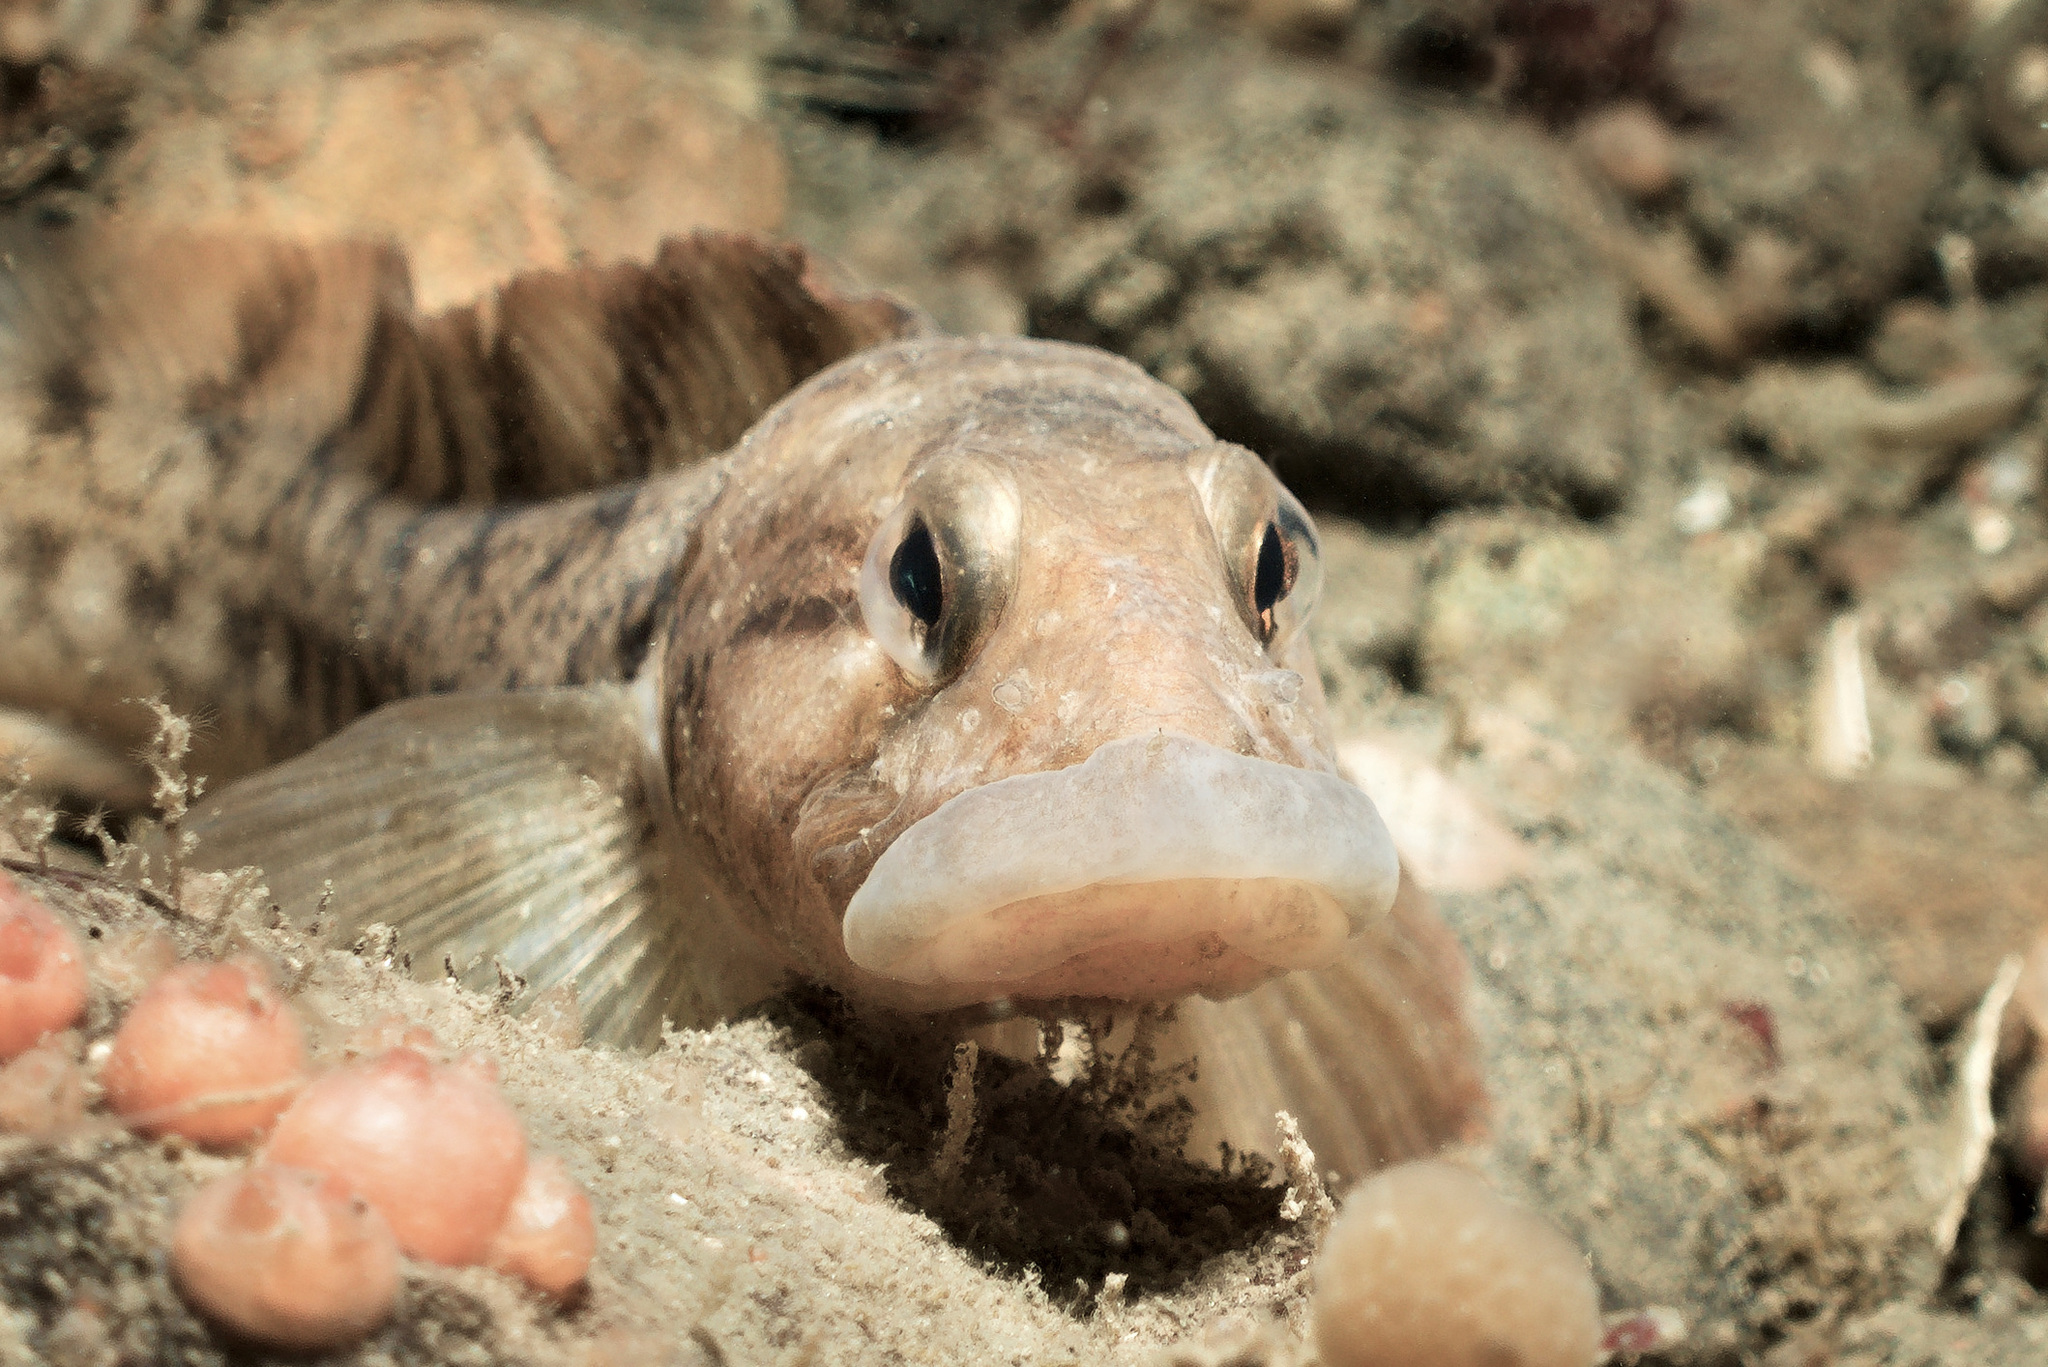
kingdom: Animalia
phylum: Chordata
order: Perciformes
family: Zoarcidae
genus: Zoarces
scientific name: Zoarces viviparus
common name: Viviparous blenny
